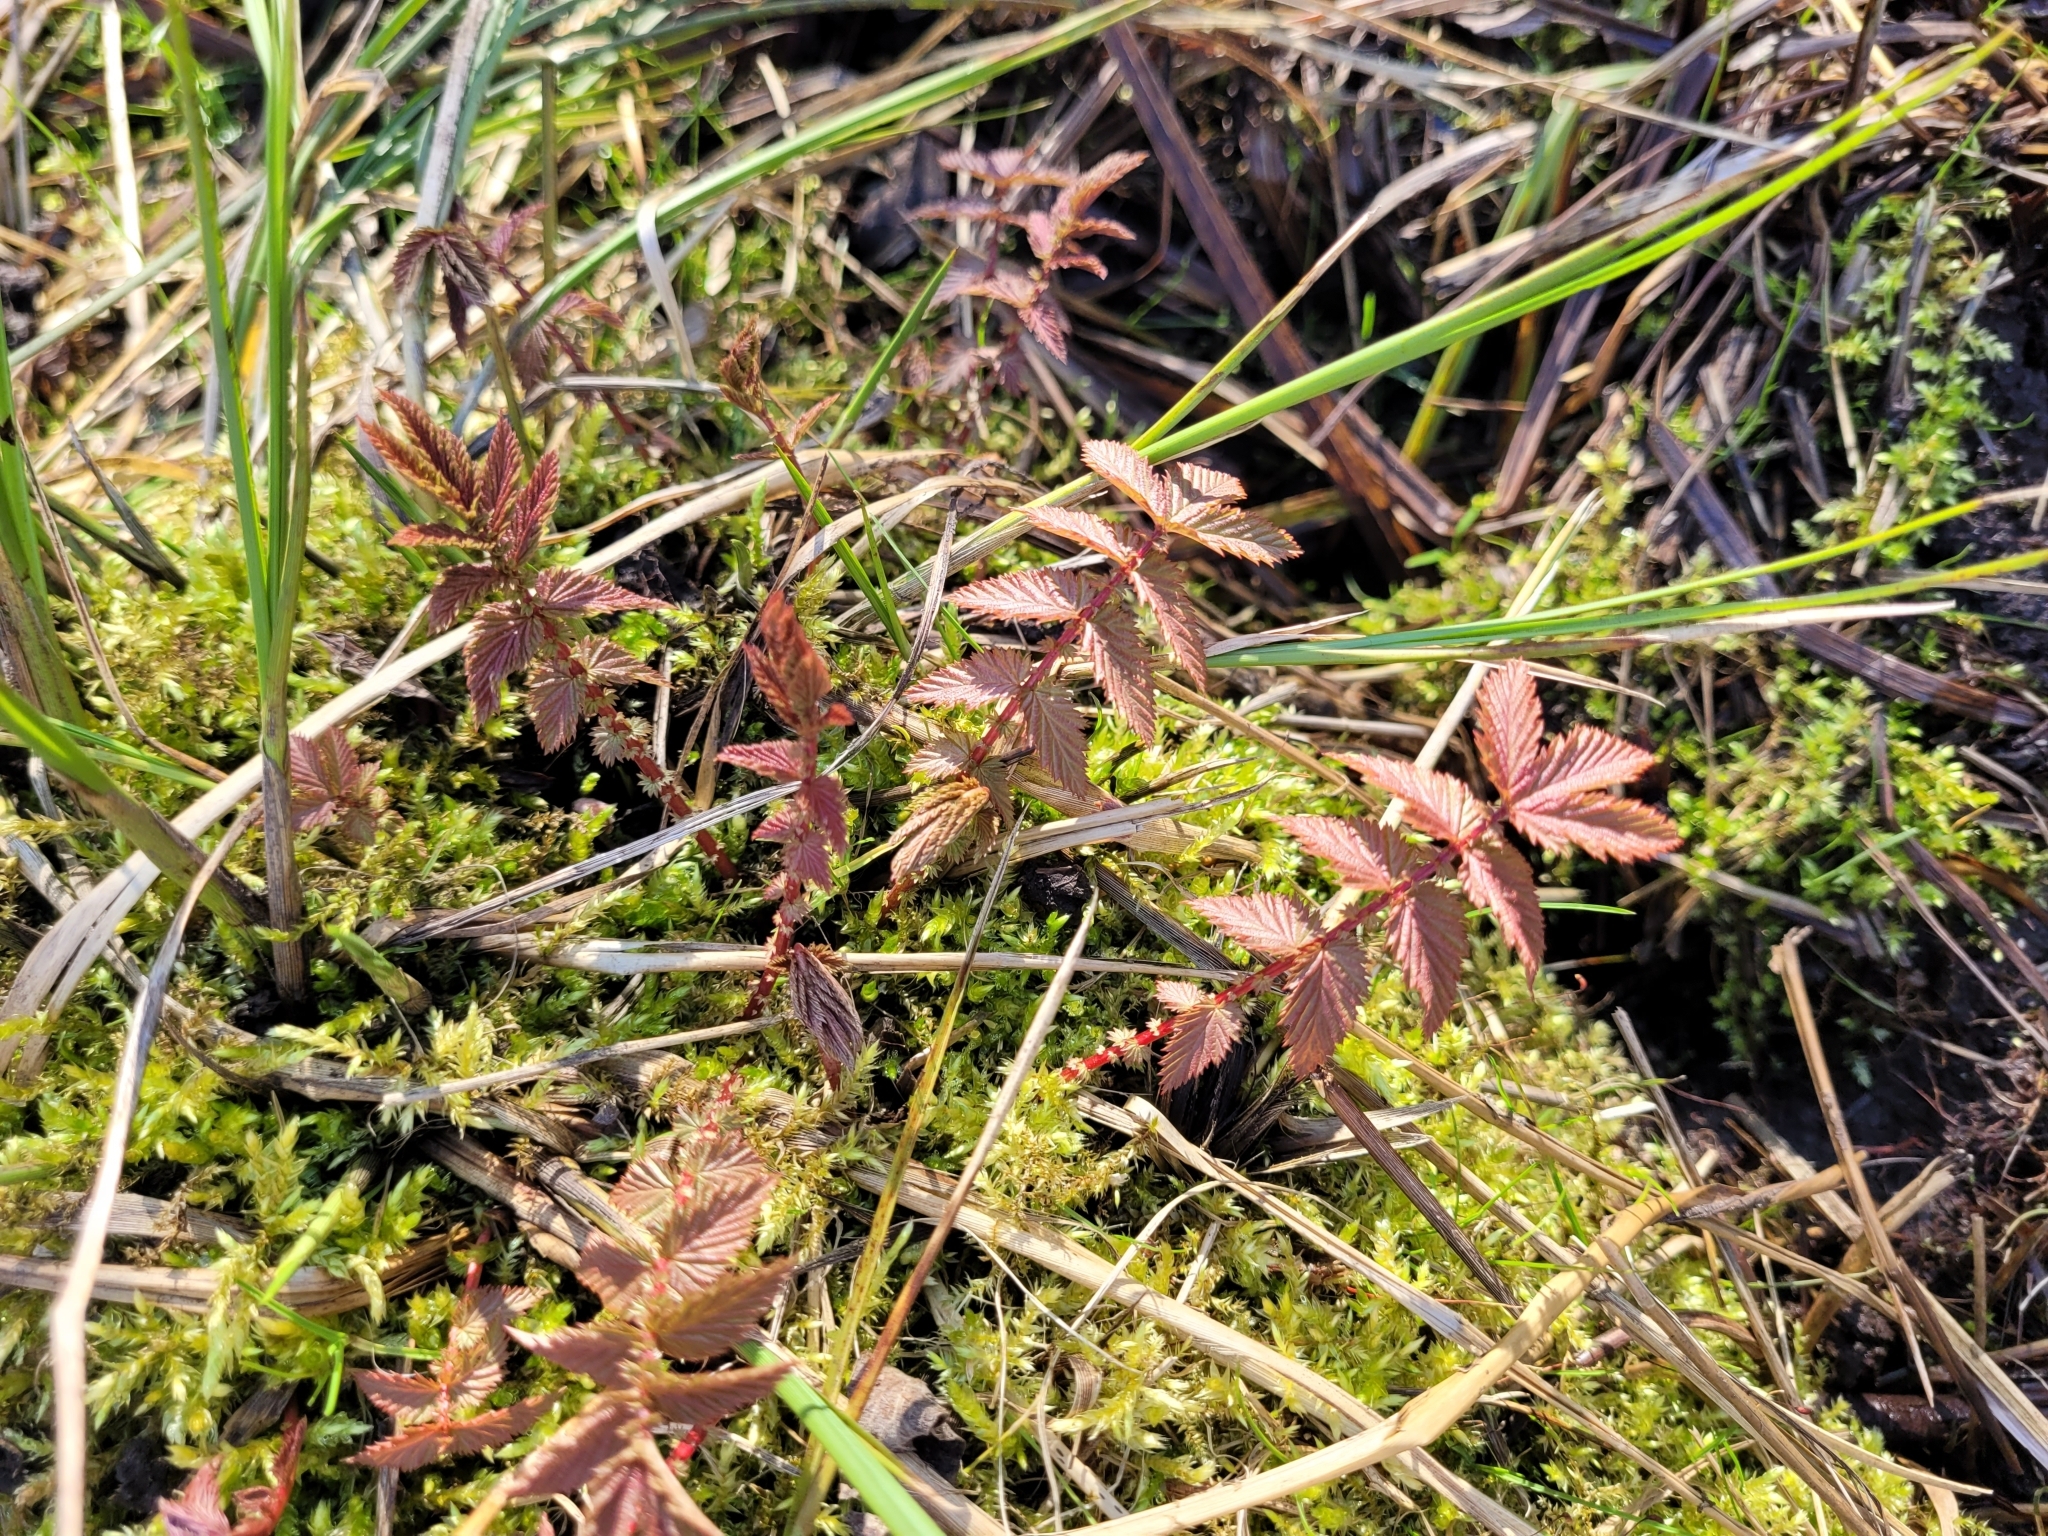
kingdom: Plantae
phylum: Tracheophyta
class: Magnoliopsida
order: Rosales
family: Rosaceae
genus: Filipendula
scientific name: Filipendula ulmaria
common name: Meadowsweet
